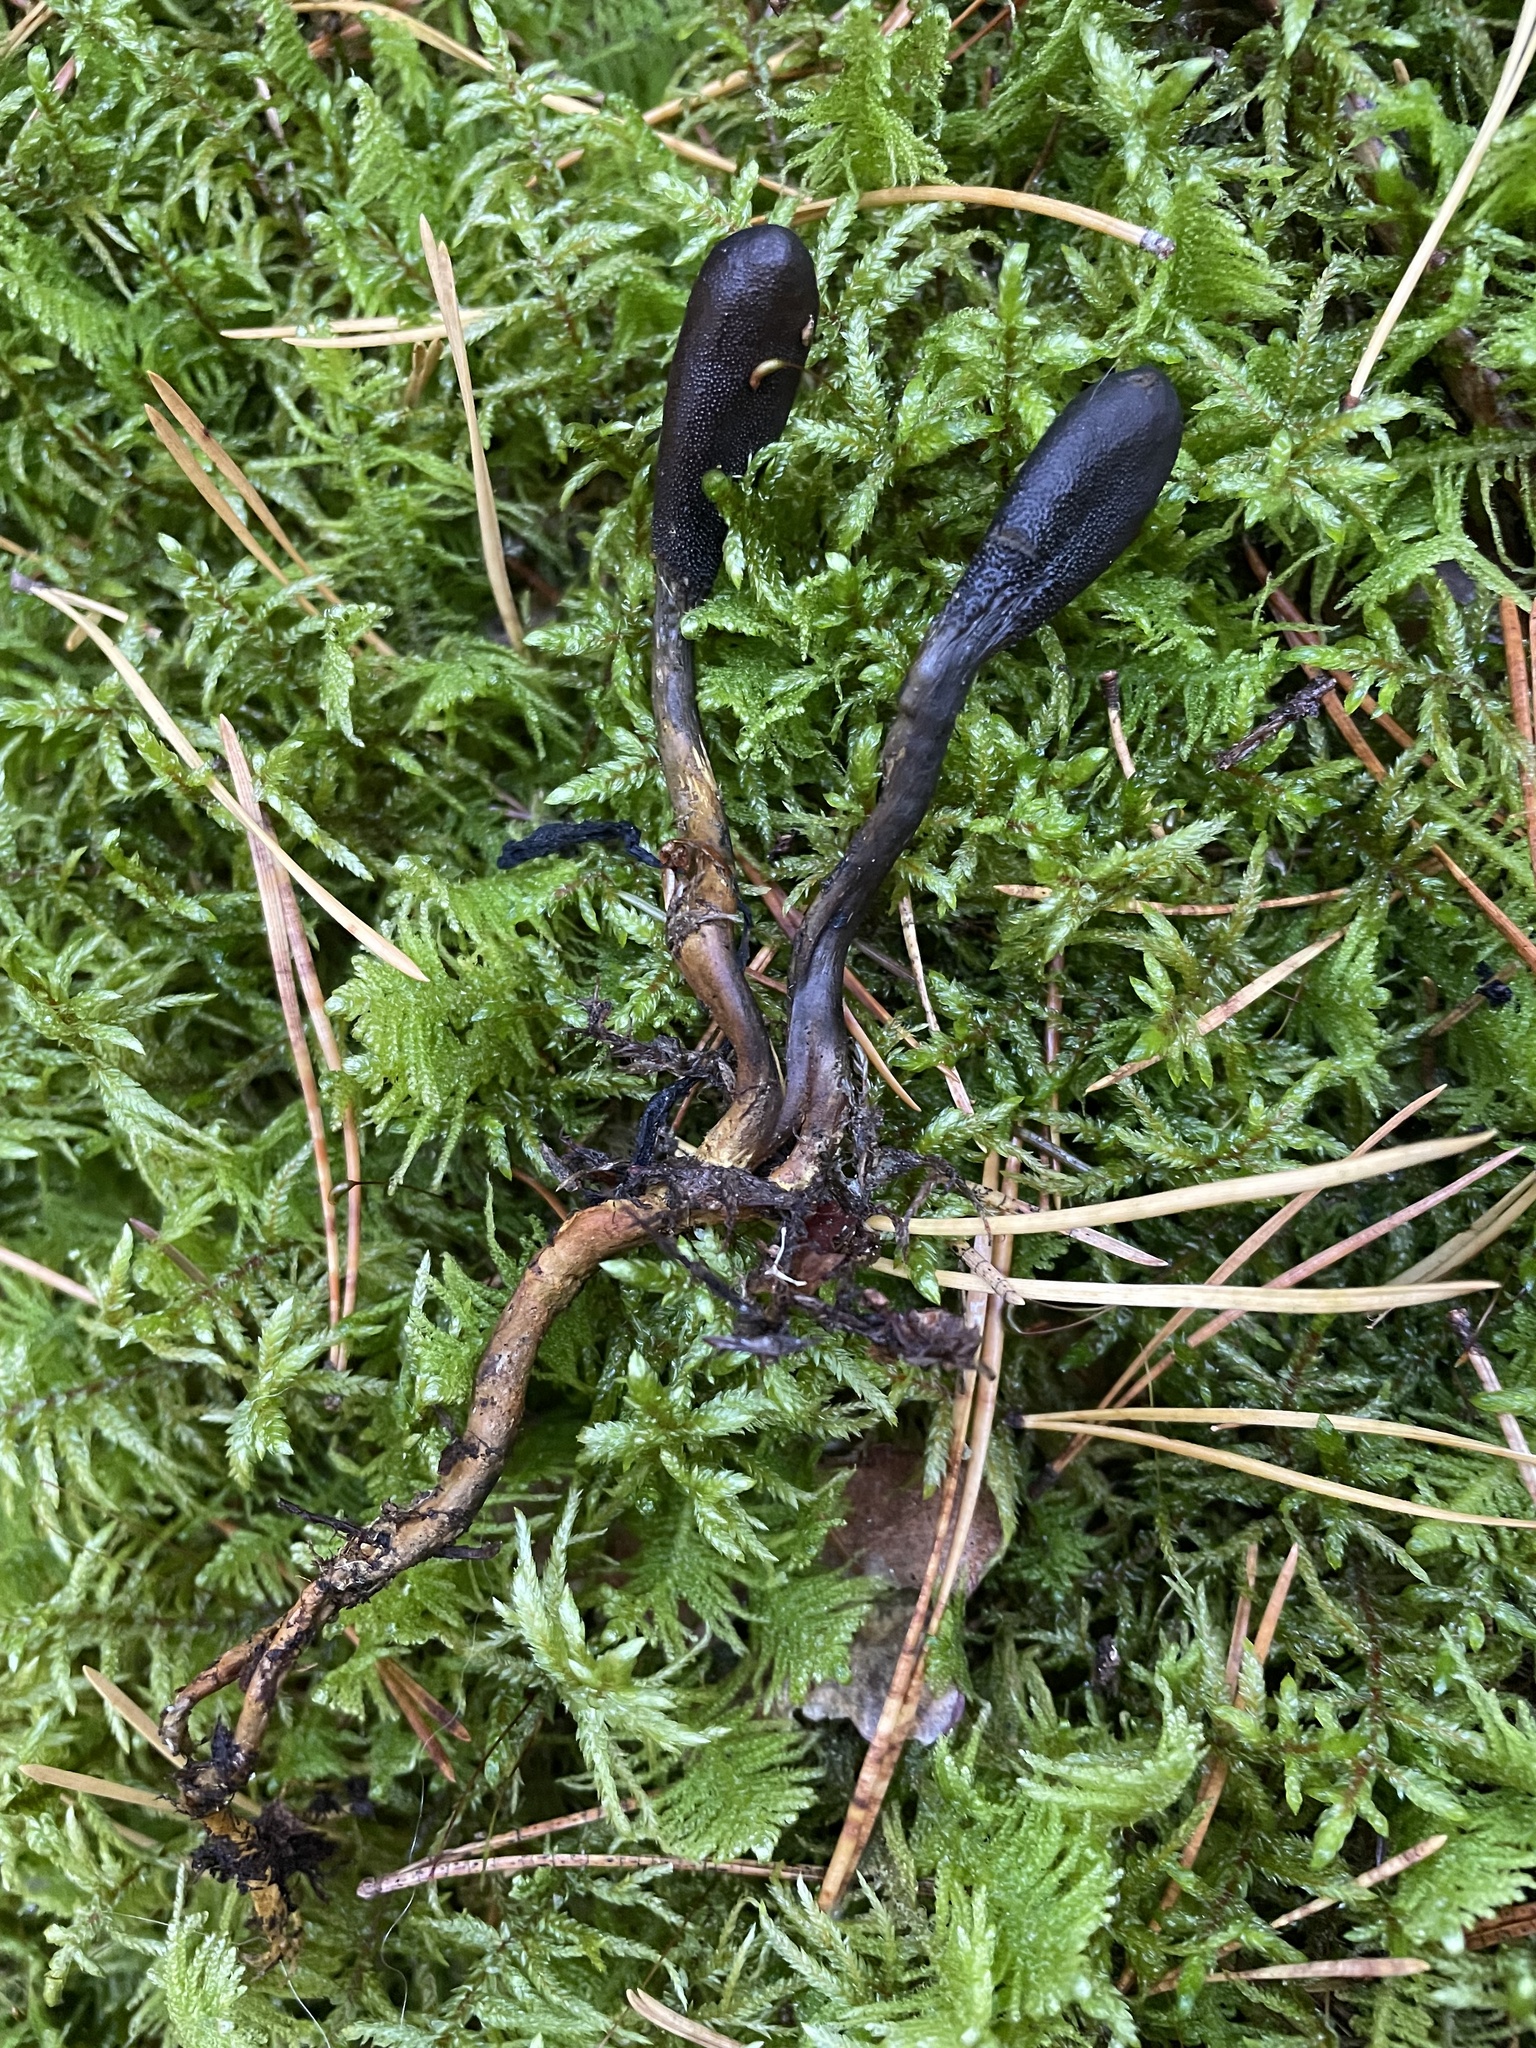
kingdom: Fungi
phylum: Ascomycota
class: Sordariomycetes
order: Hypocreales
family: Ophiocordycipitaceae
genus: Tolypocladium
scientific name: Tolypocladium ophioglossoides
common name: Snaketongue truffleclub
